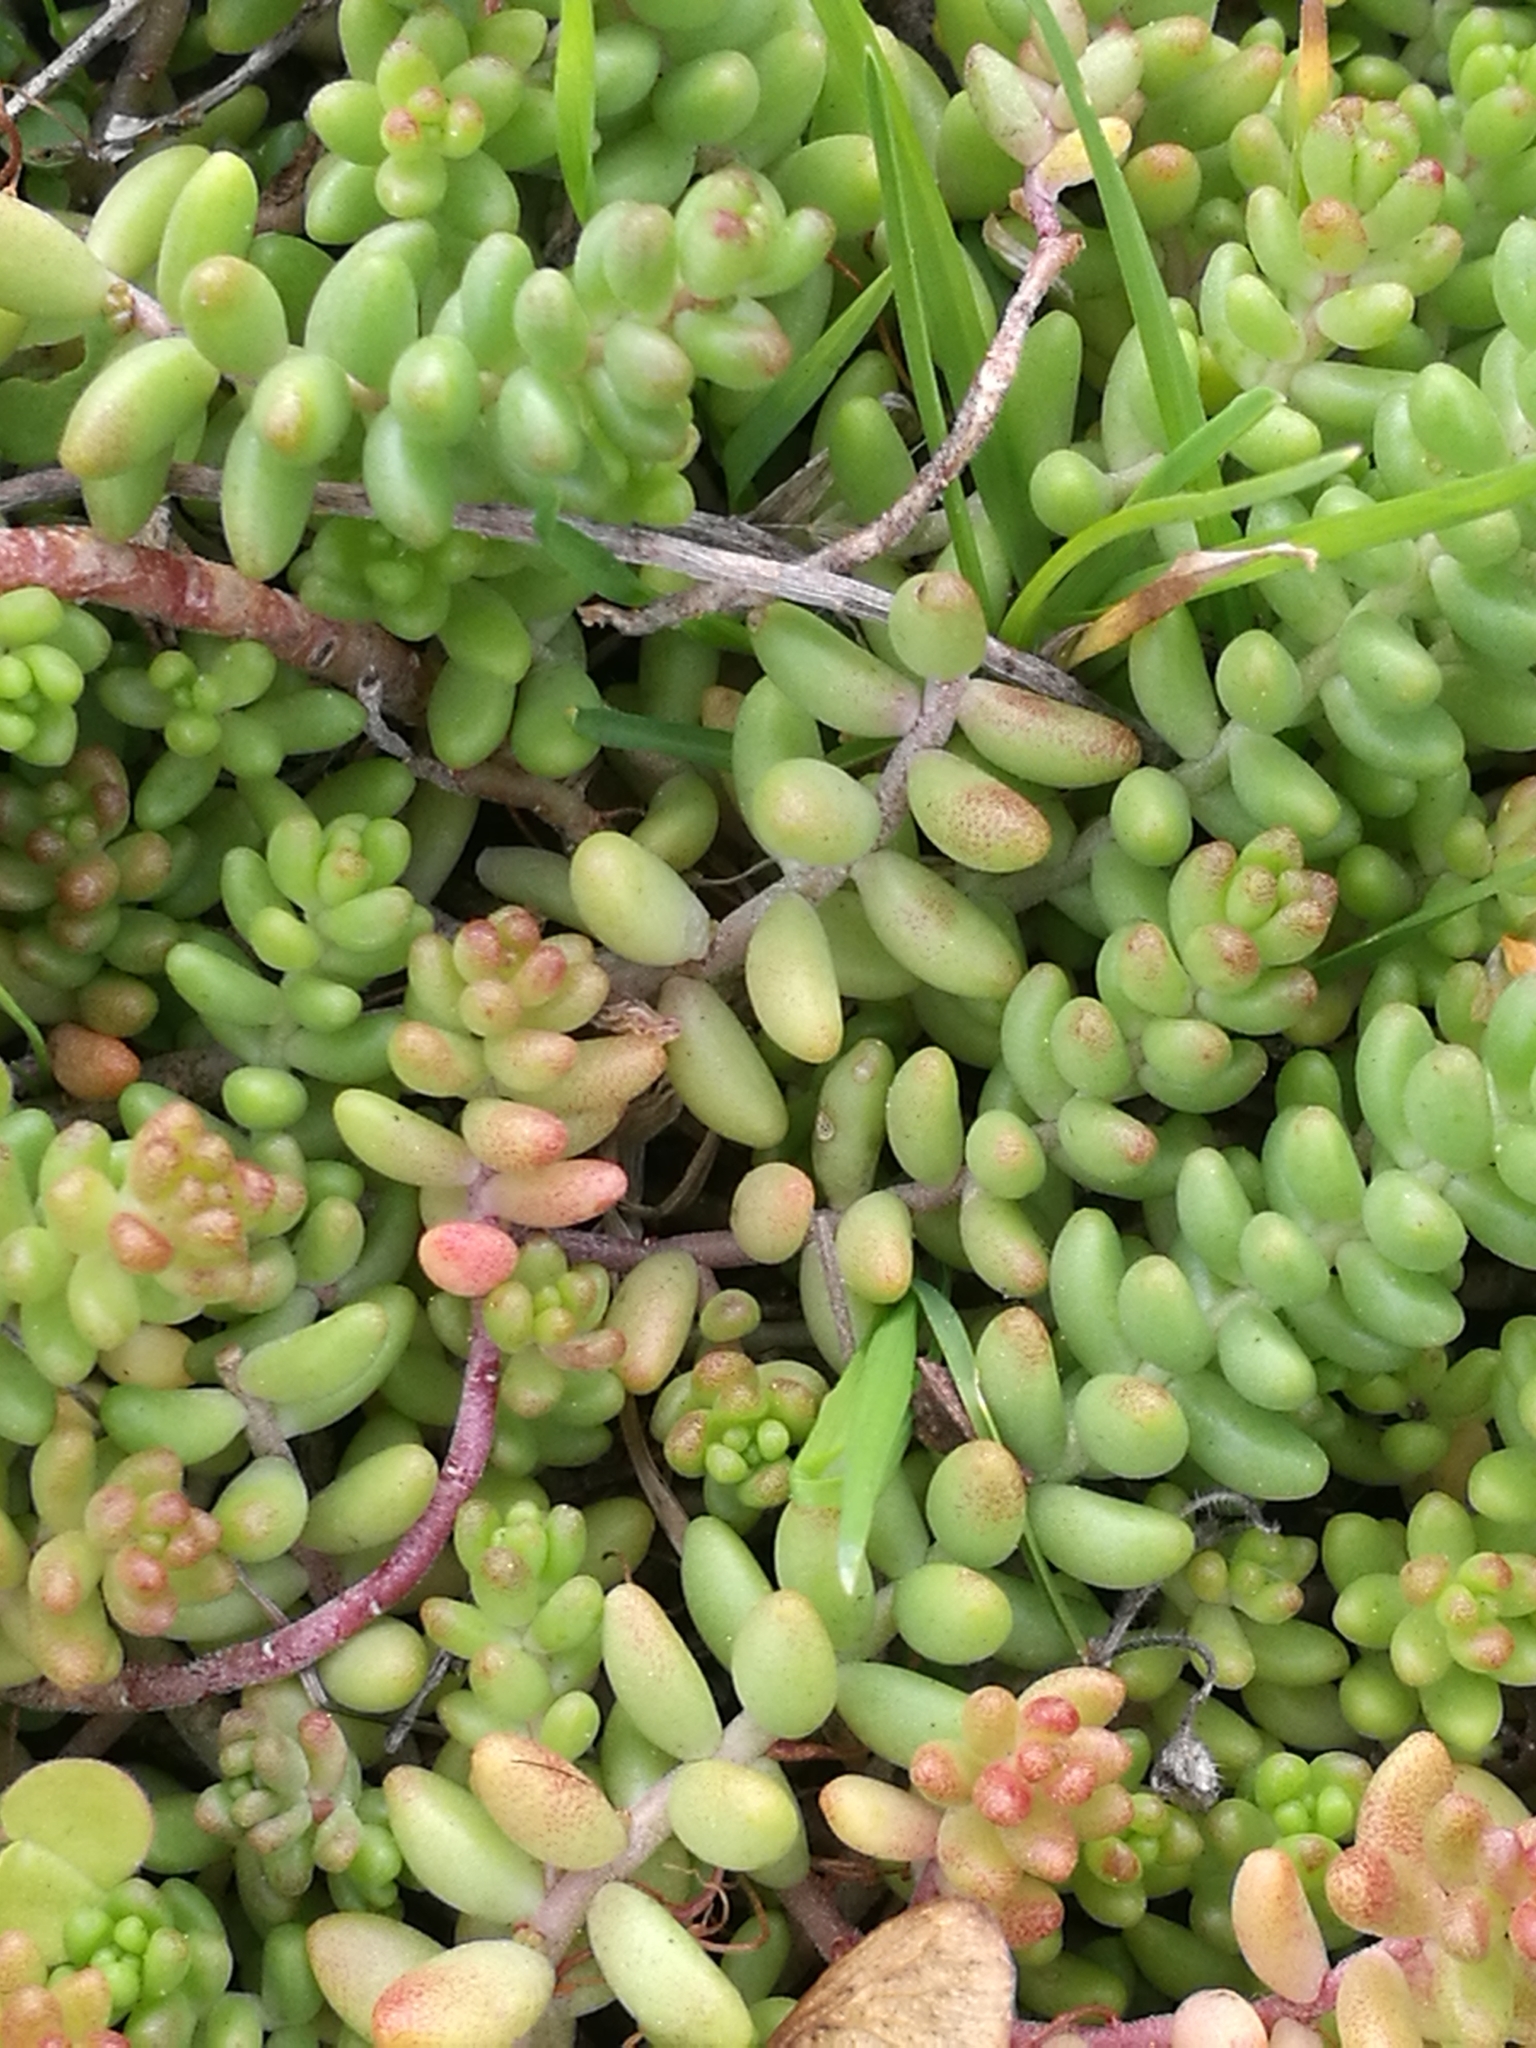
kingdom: Plantae
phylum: Tracheophyta
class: Magnoliopsida
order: Saxifragales
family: Crassulaceae
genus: Sedum
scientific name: Sedum album
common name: White stonecrop
